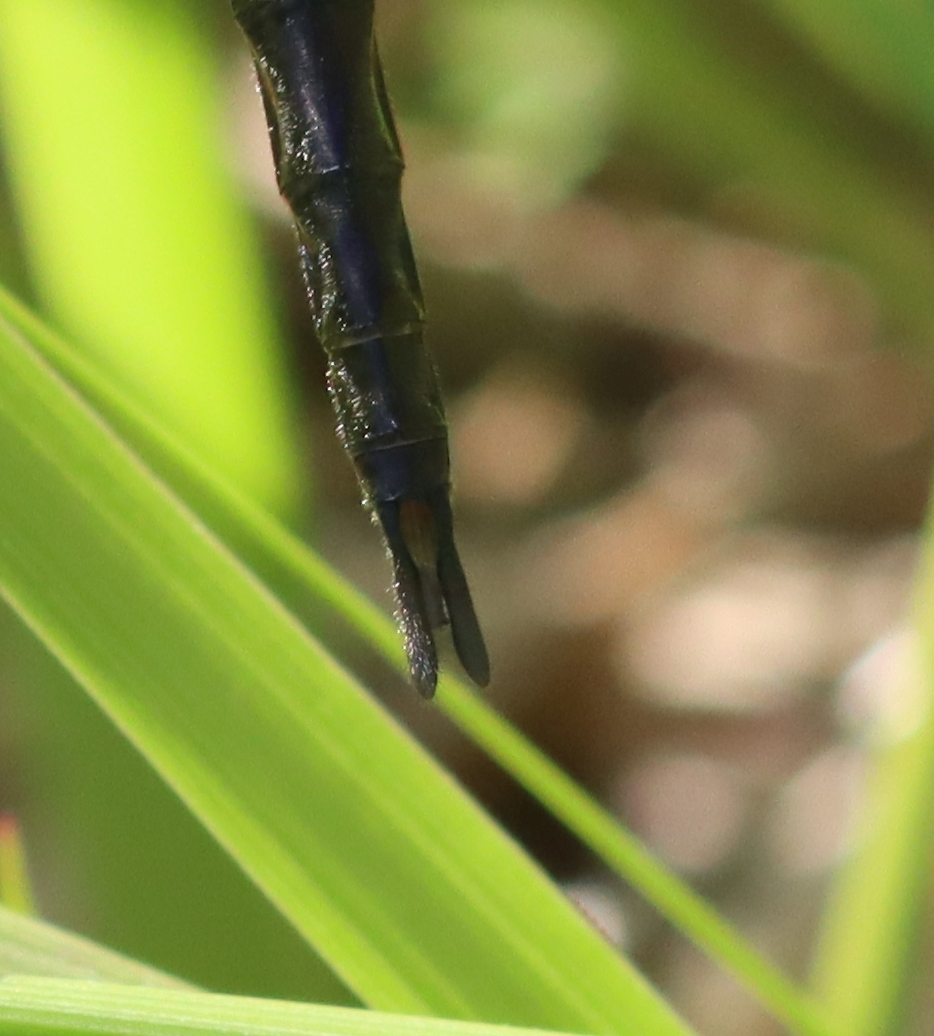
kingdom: Animalia
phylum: Arthropoda
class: Insecta
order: Odonata
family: Corduliidae
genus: Epitheca
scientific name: Epitheca costalis
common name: Slender baskettail
